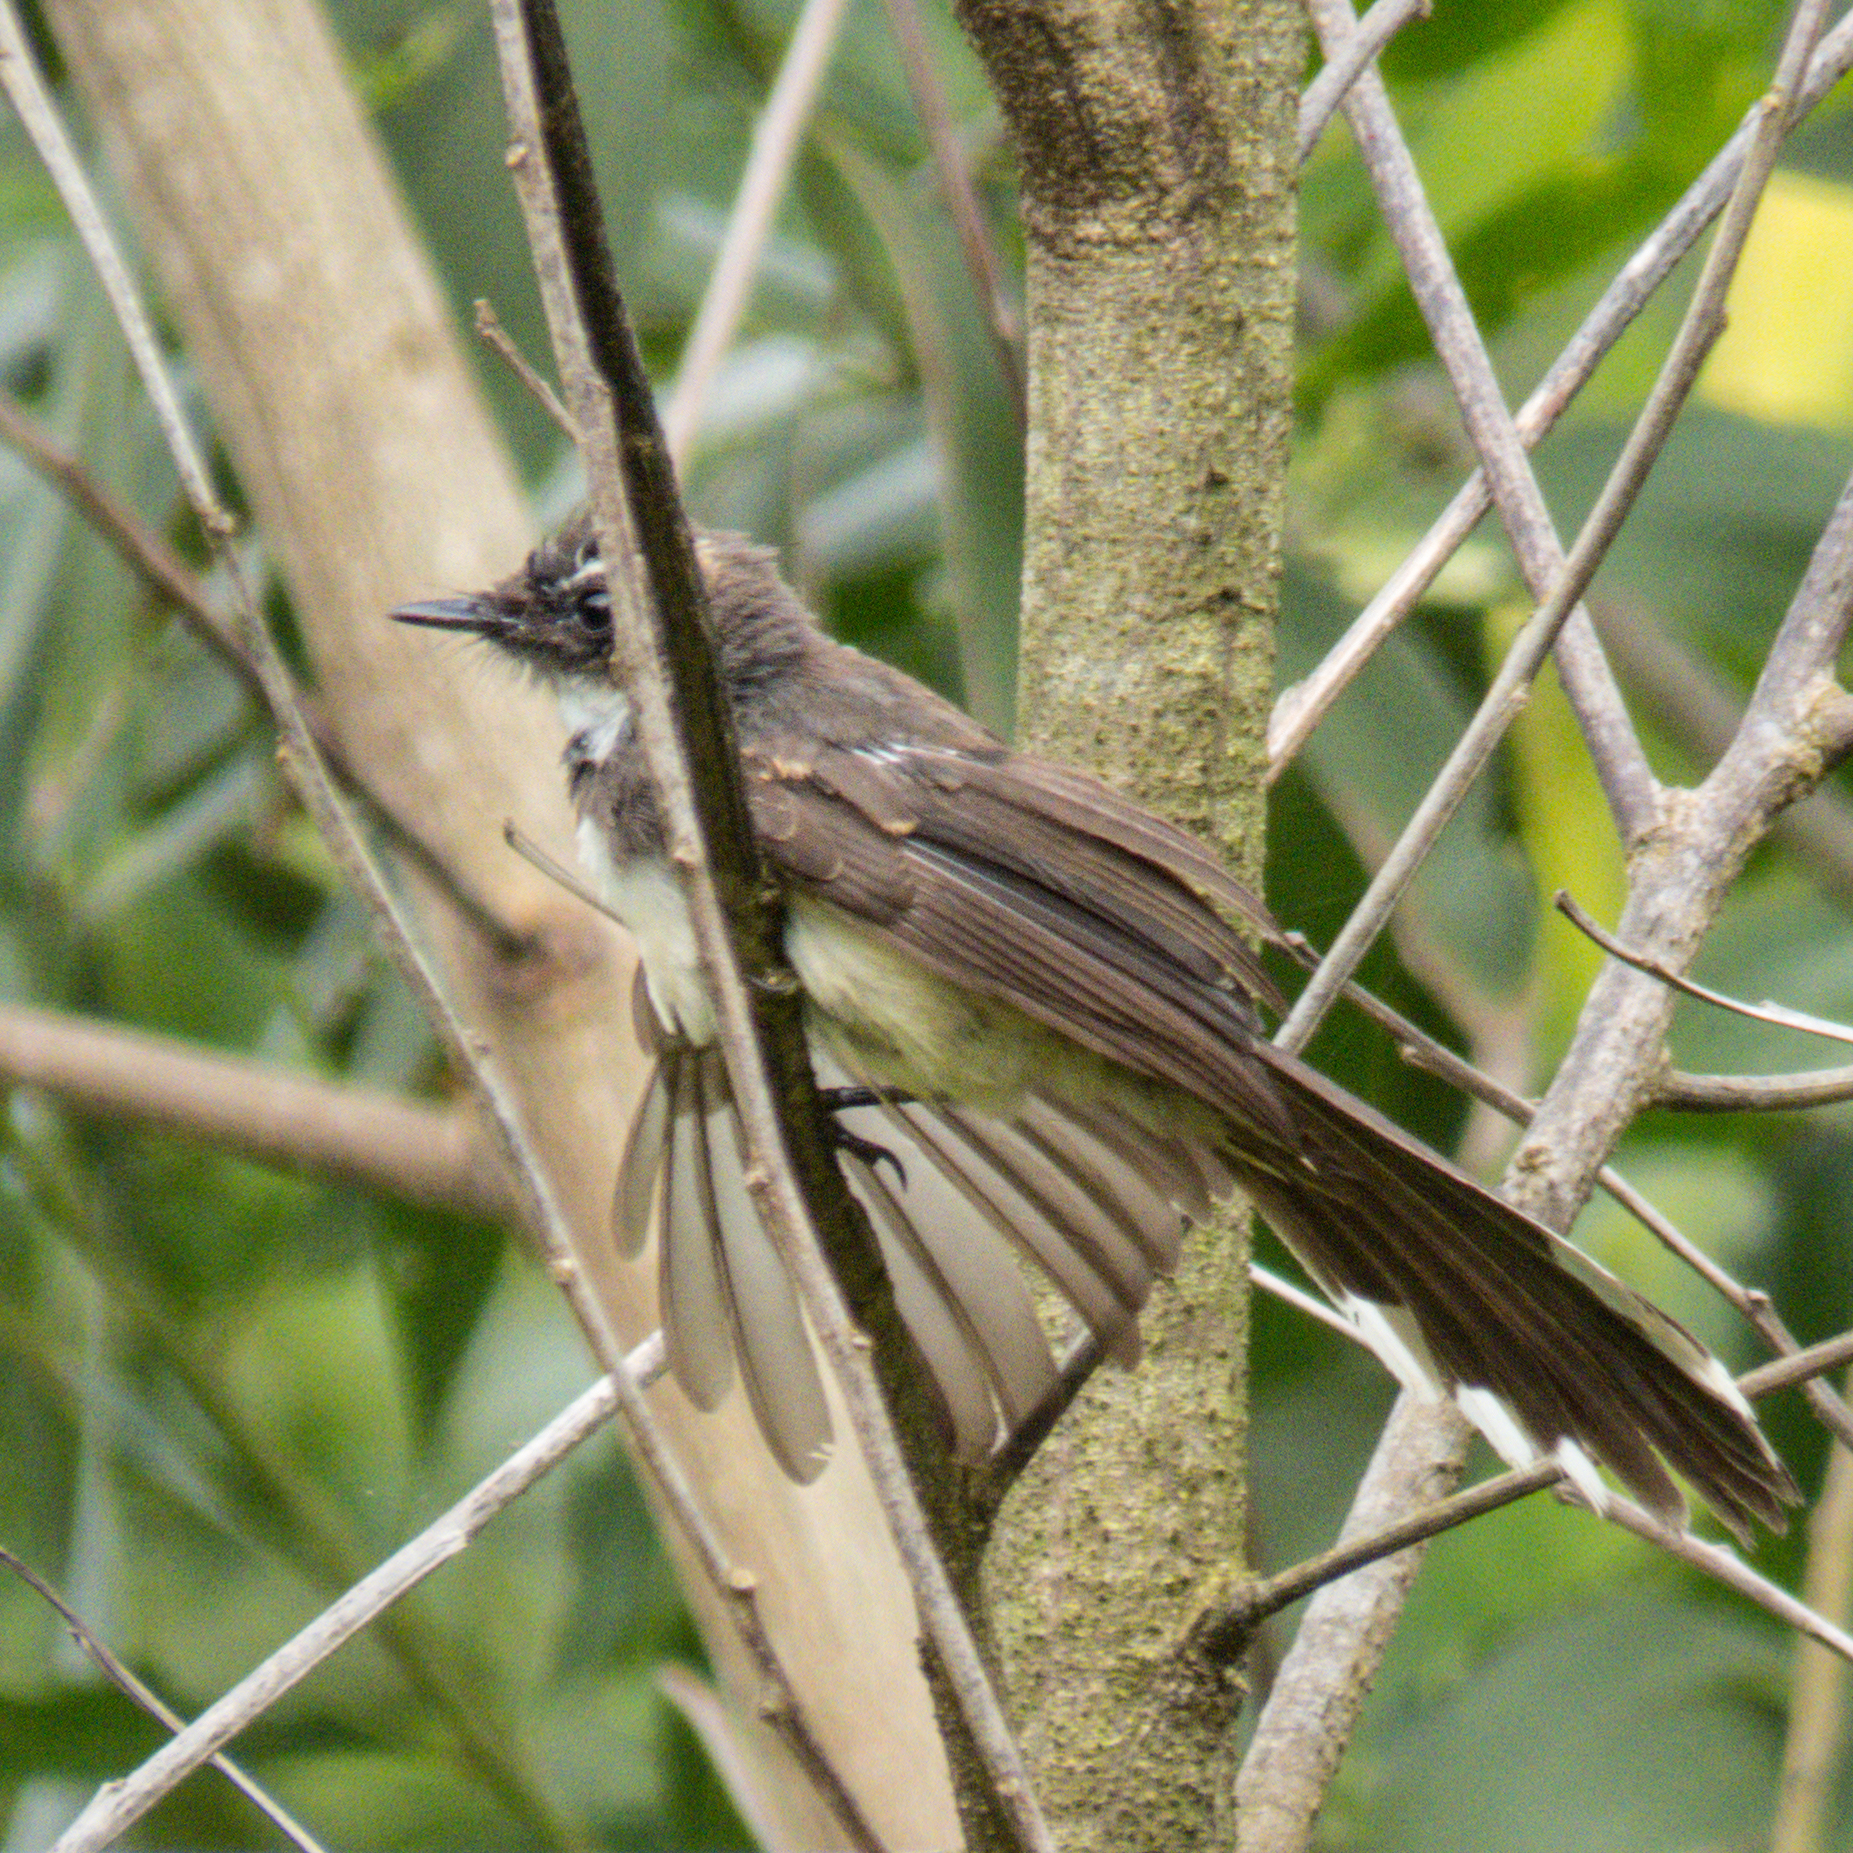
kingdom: Animalia
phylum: Chordata
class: Aves
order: Passeriformes
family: Rhipiduridae
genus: Rhipidura
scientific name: Rhipidura javanica
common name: Pied fantail
